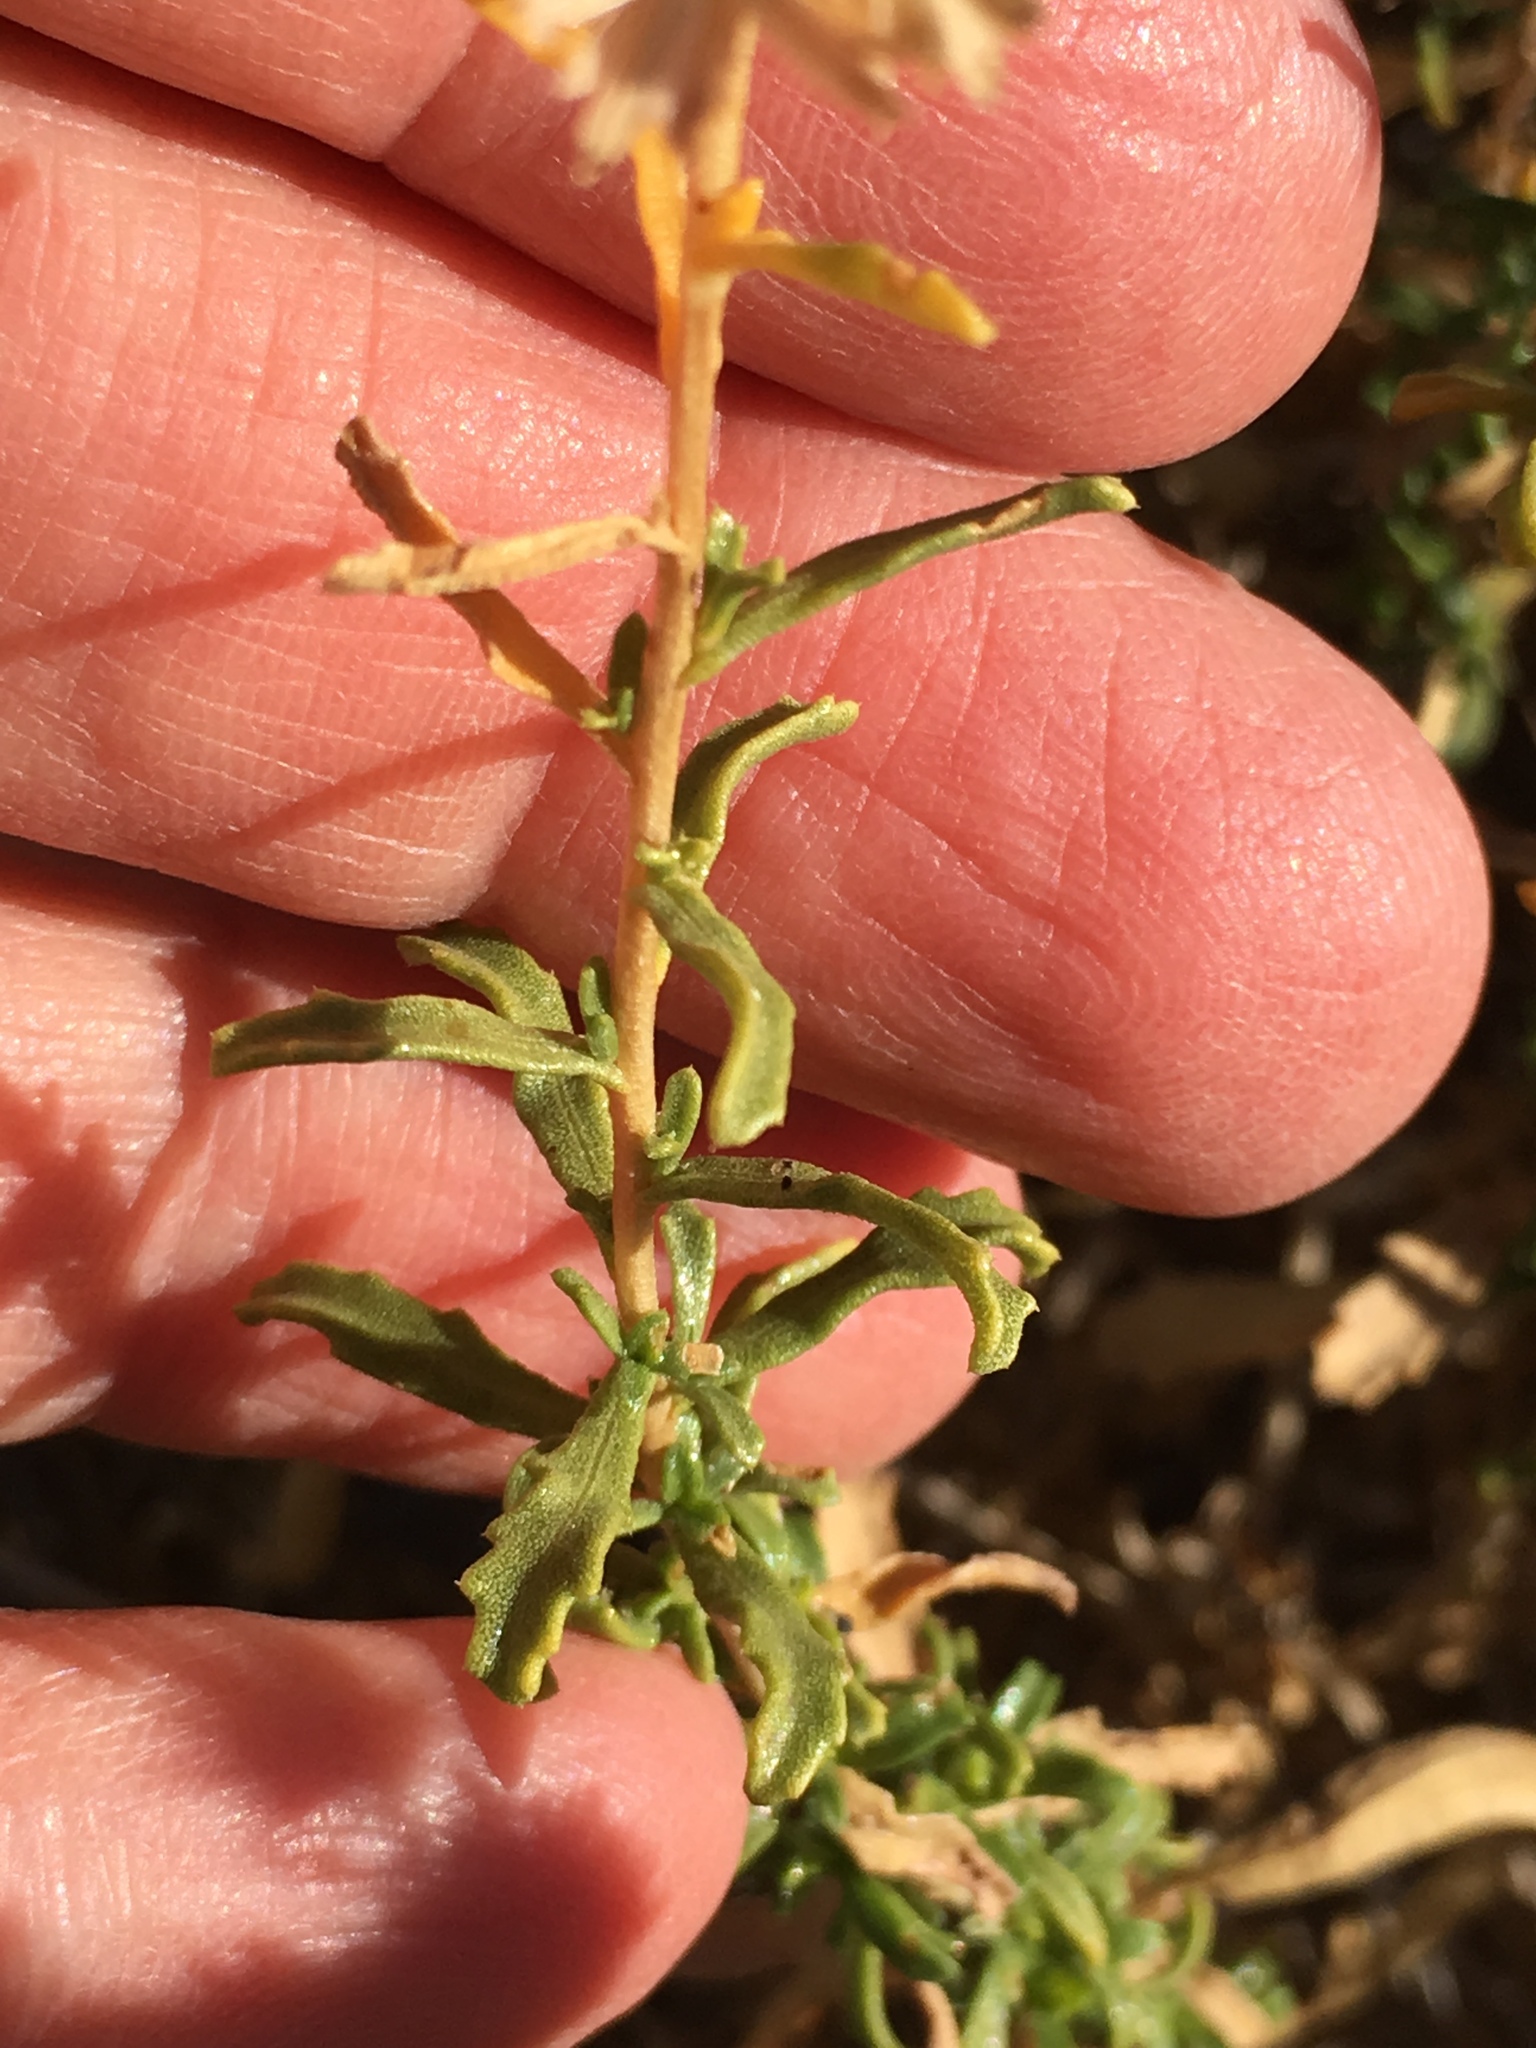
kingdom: Plantae
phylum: Tracheophyta
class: Magnoliopsida
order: Asterales
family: Asteraceae
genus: Isocoma
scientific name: Isocoma acradenia
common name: Alkali jimmyweed
